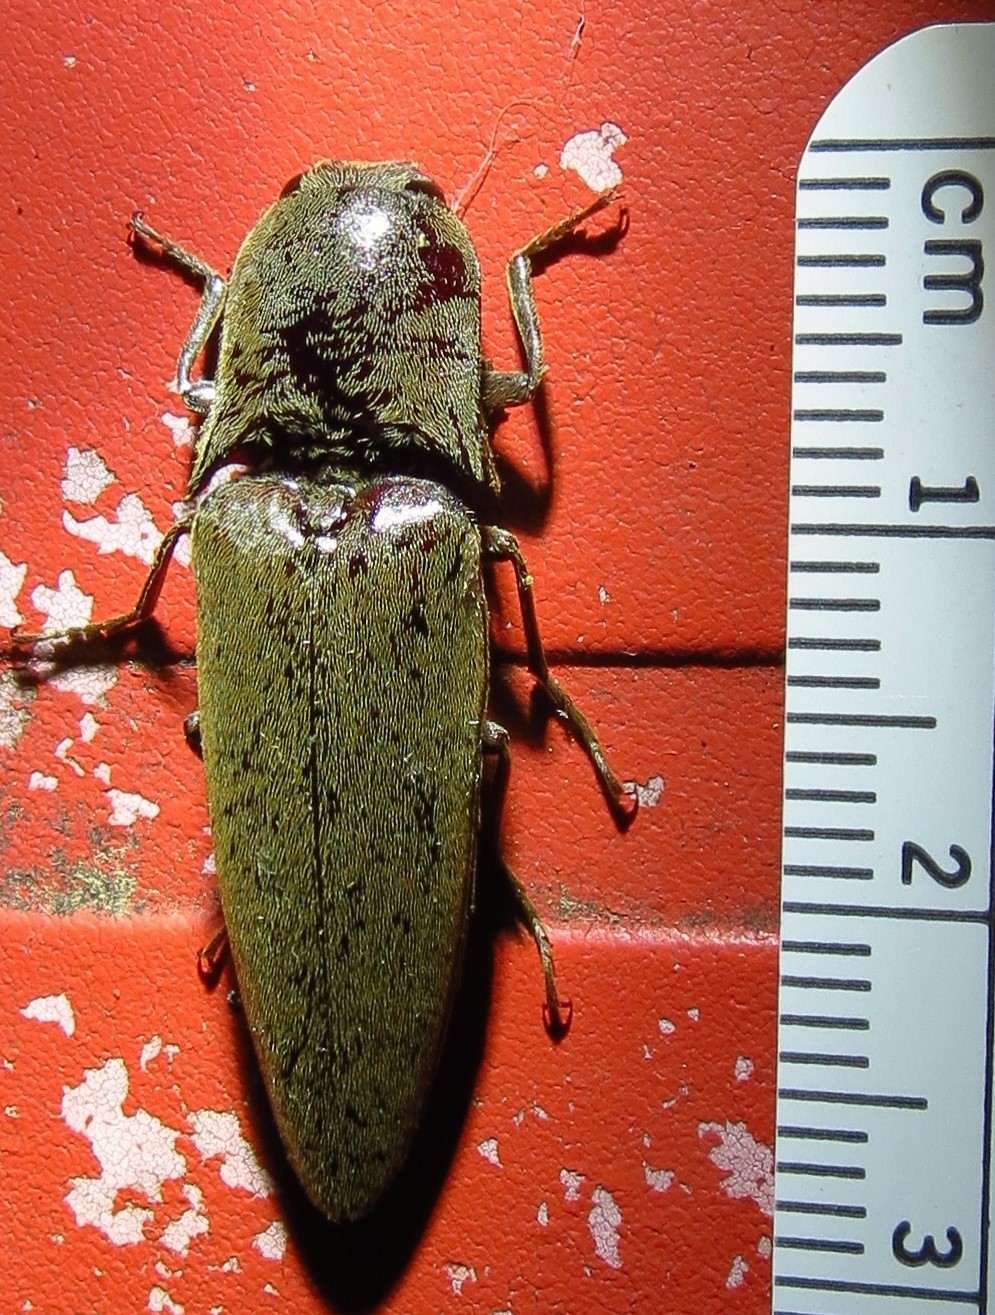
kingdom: Animalia
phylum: Arthropoda
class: Insecta
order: Coleoptera
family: Elateridae
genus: Orthostethus
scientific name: Orthostethus infuscatus
